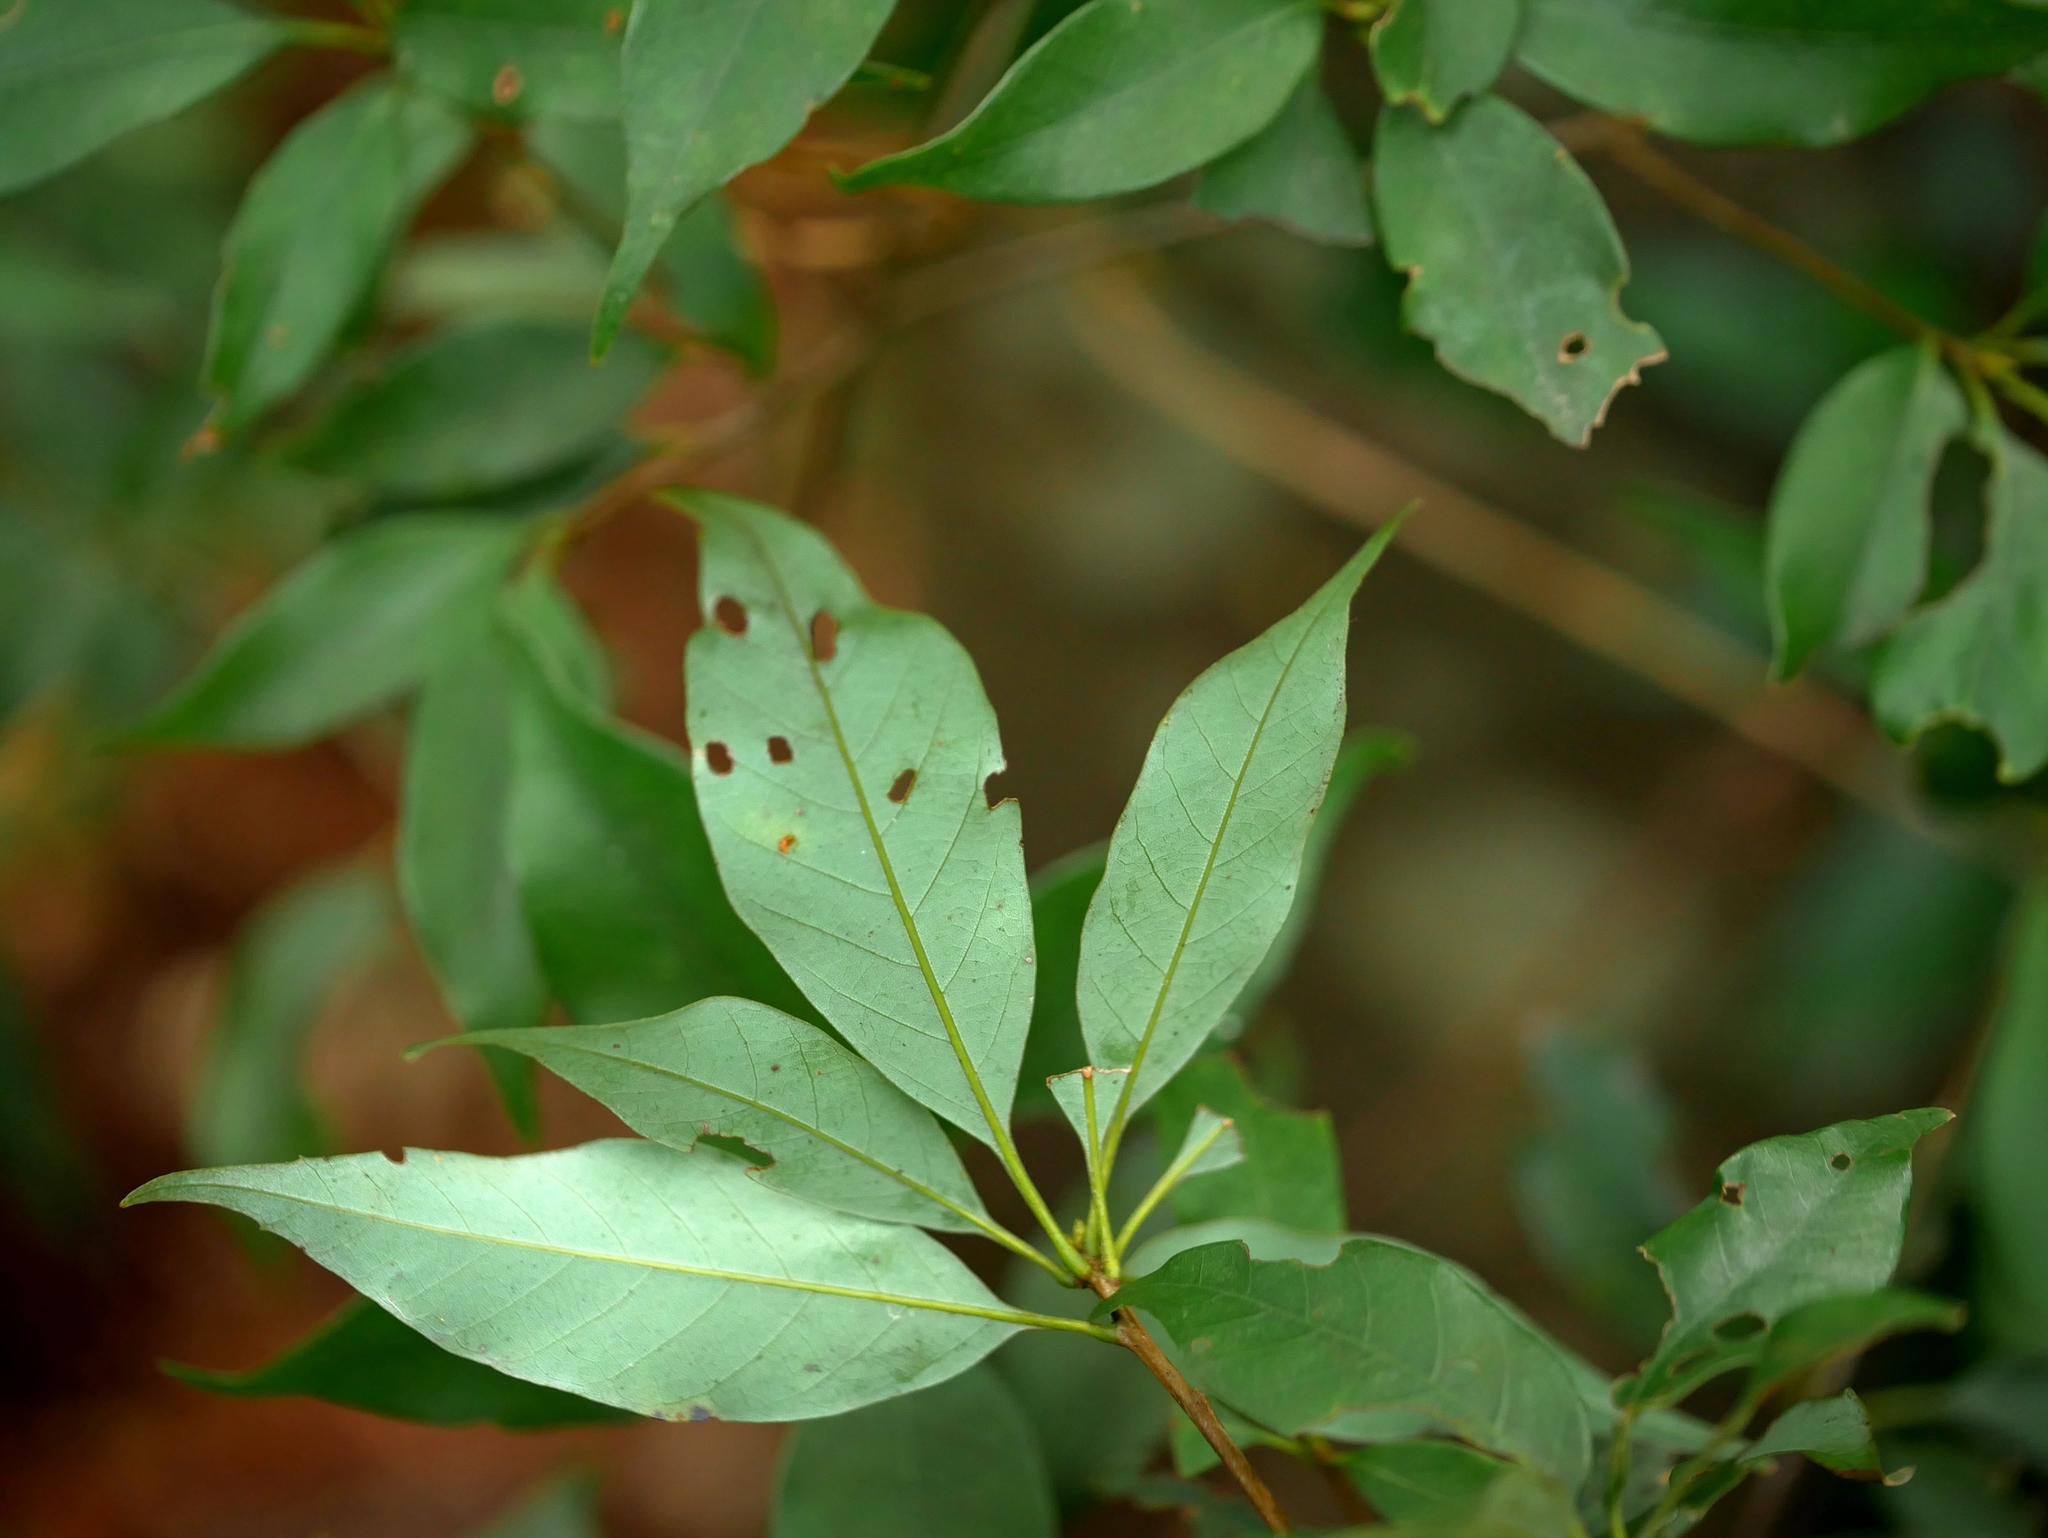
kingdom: Plantae
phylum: Tracheophyta
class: Magnoliopsida
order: Fagales
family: Fagaceae
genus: Quercus
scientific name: Quercus longinux
